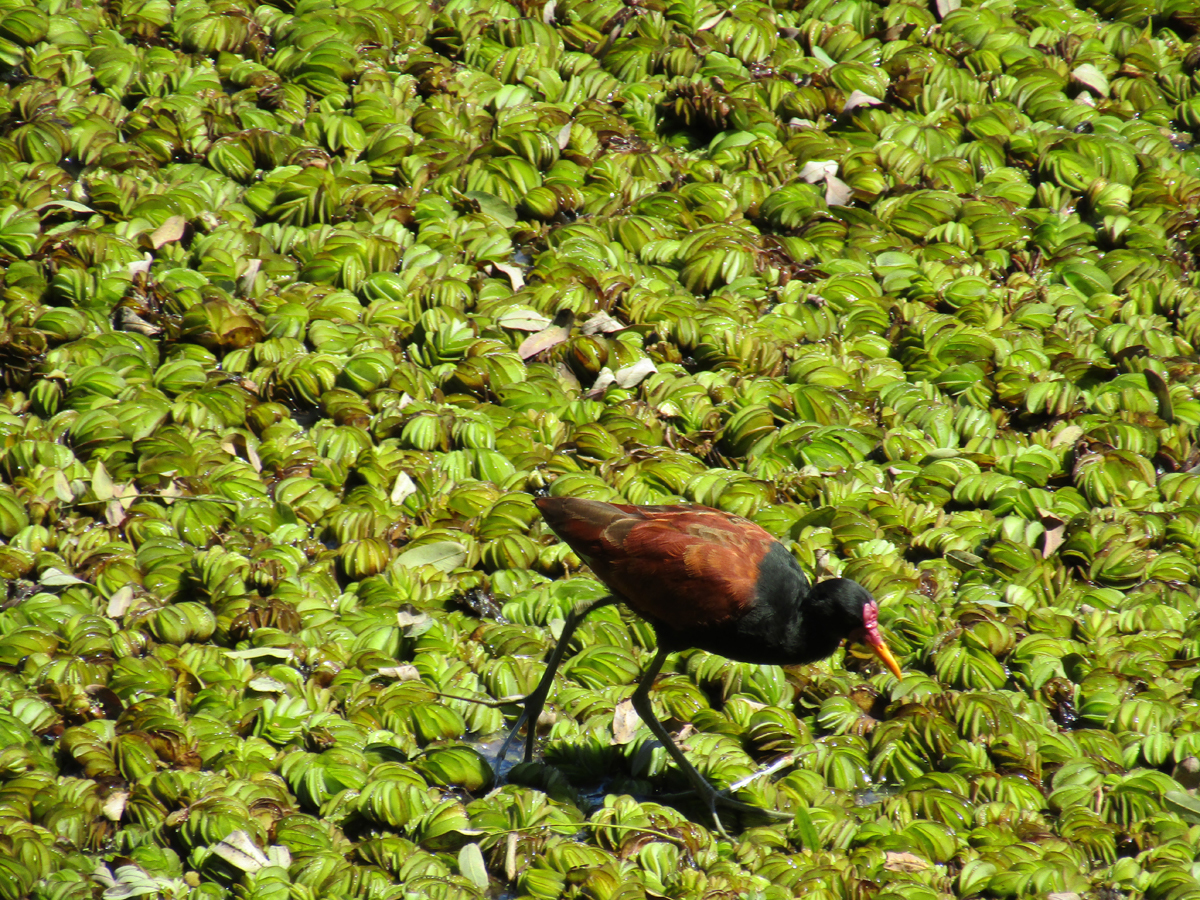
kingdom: Animalia
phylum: Chordata
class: Aves
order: Charadriiformes
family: Jacanidae
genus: Jacana
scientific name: Jacana jacana
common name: Wattled jacana
